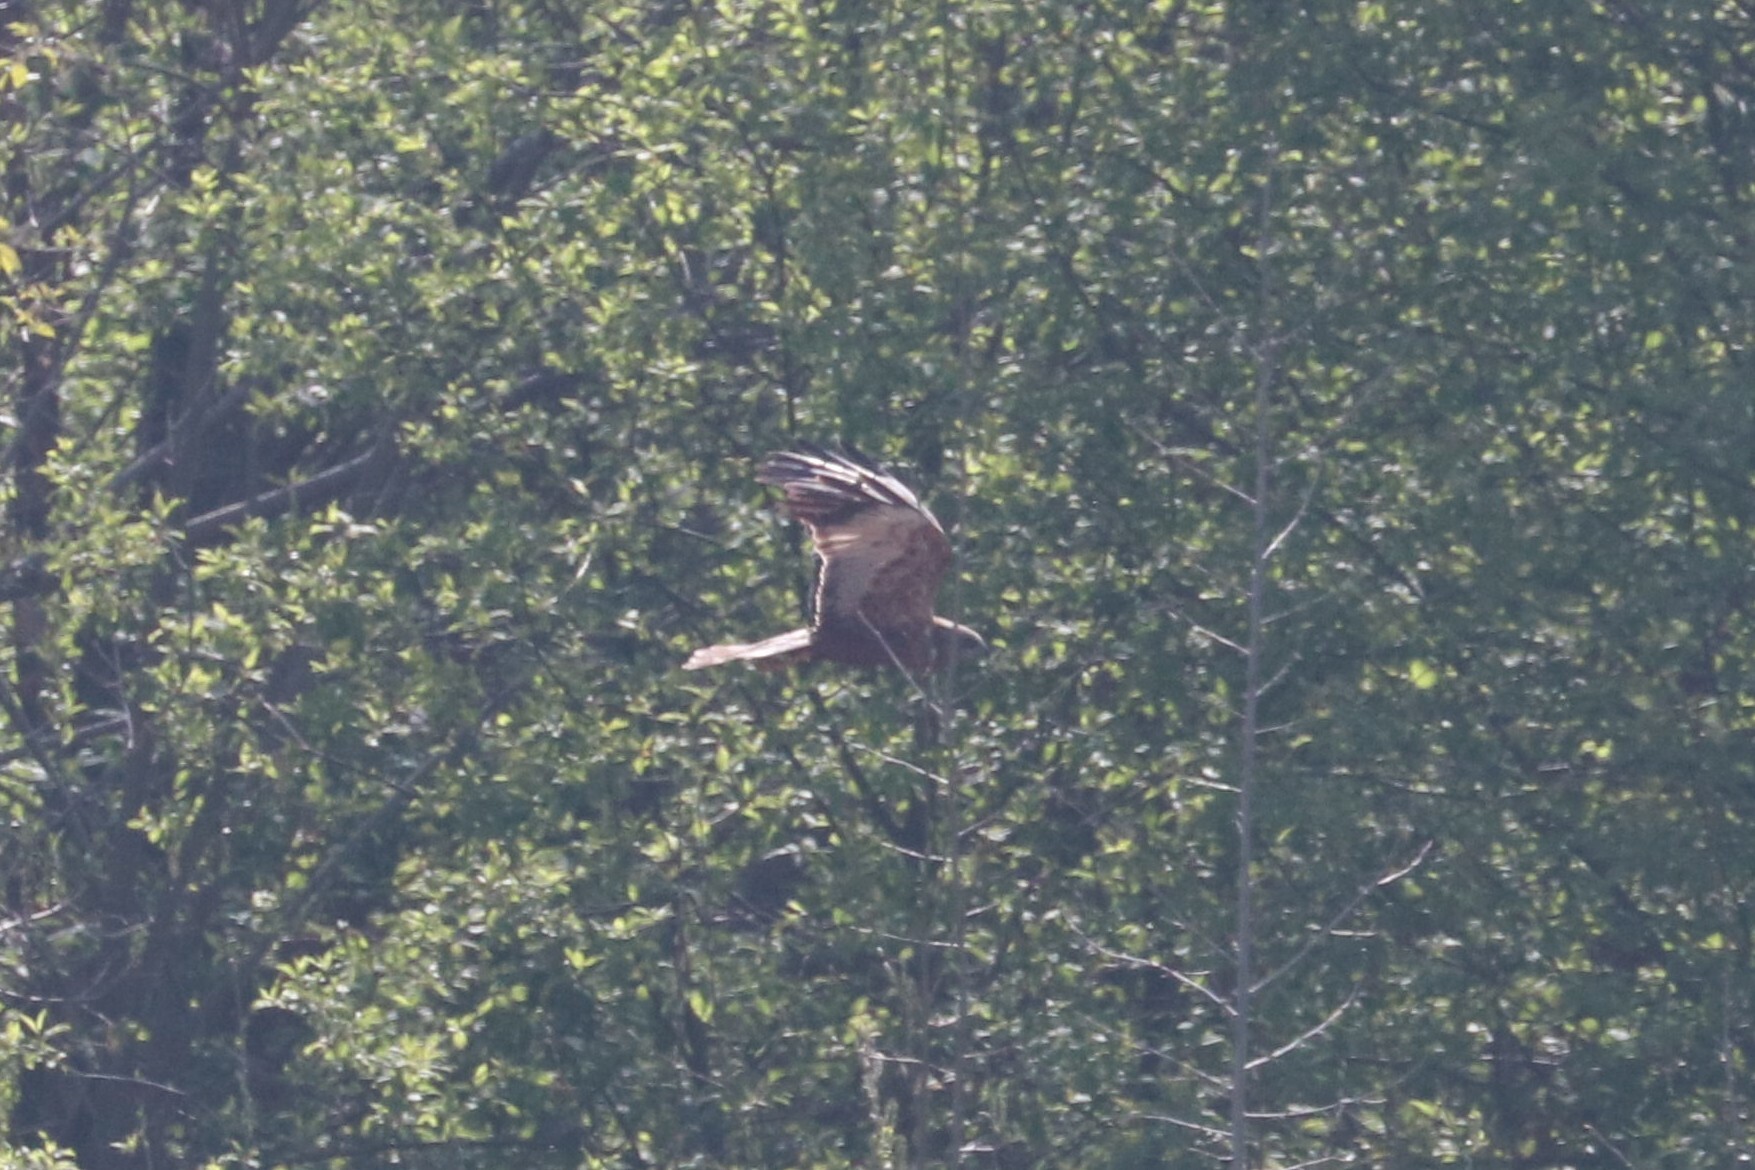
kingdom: Animalia
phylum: Chordata
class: Aves
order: Accipitriformes
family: Accipitridae
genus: Circus
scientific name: Circus aeruginosus
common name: Western marsh harrier
